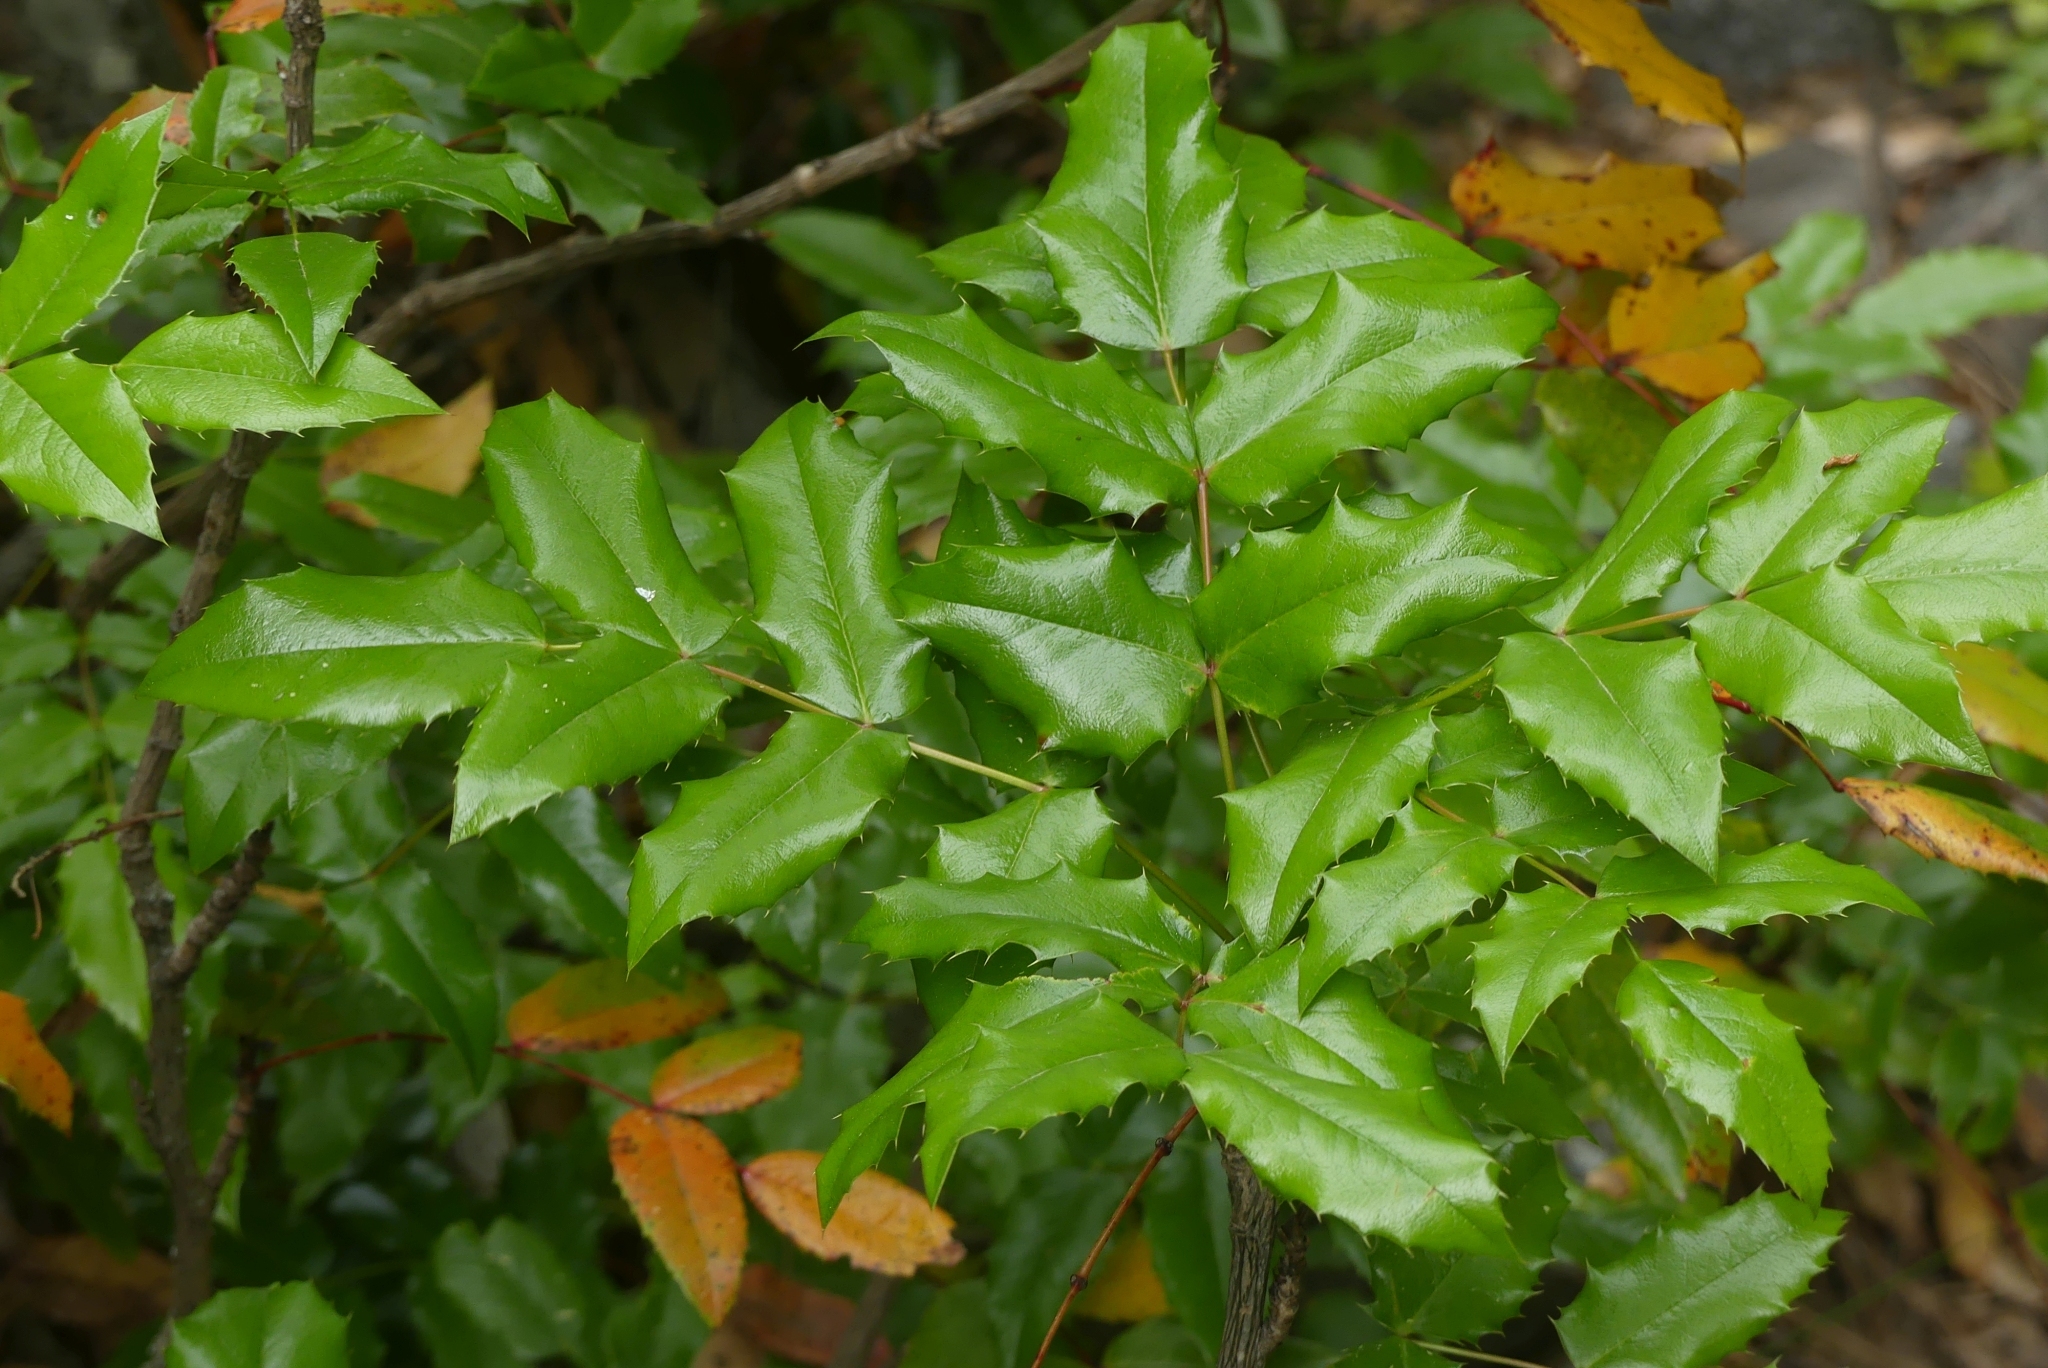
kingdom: Plantae
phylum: Tracheophyta
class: Magnoliopsida
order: Ranunculales
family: Berberidaceae
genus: Mahonia
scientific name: Mahonia aquifolium
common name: Oregon-grape
